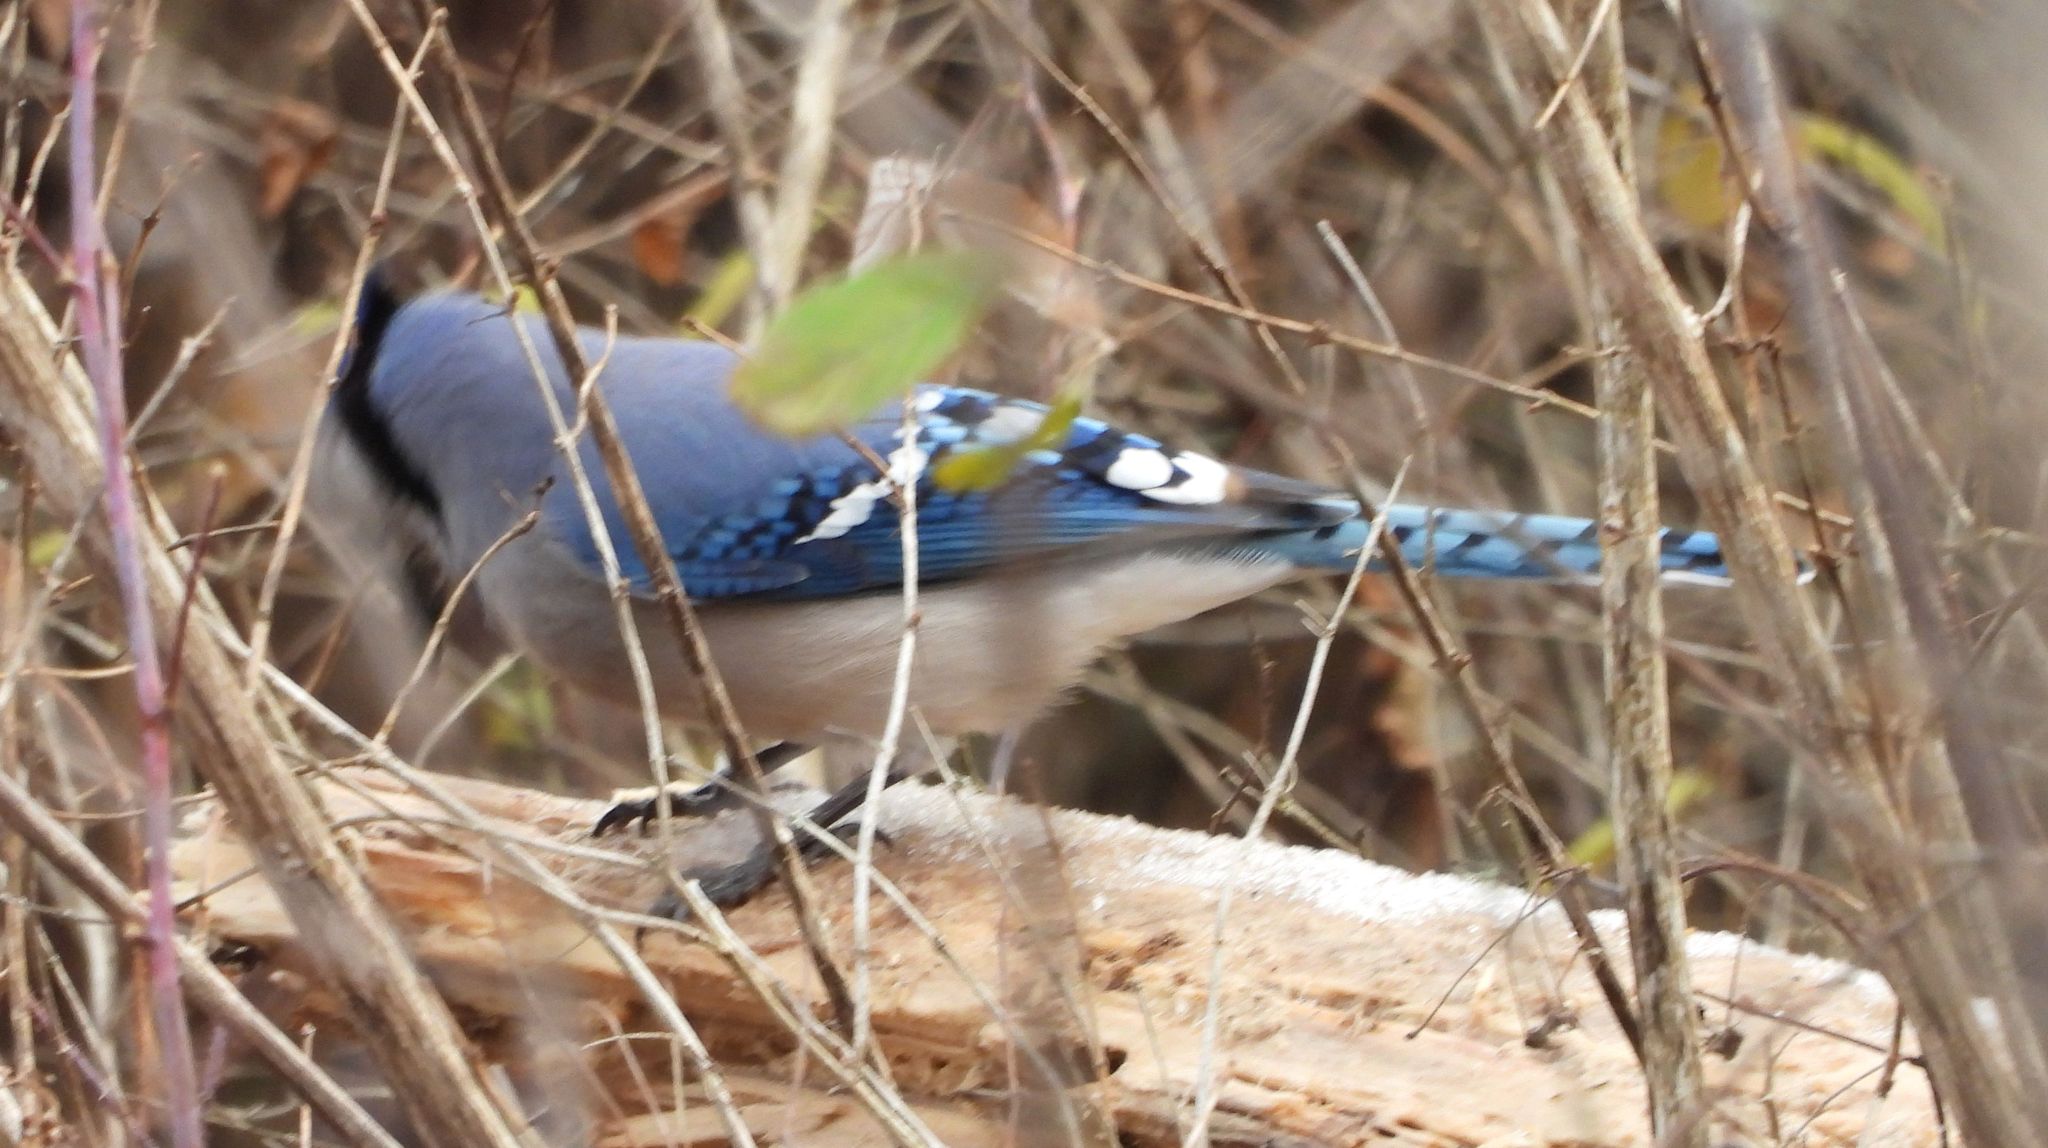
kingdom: Animalia
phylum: Chordata
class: Aves
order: Passeriformes
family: Corvidae
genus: Cyanocitta
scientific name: Cyanocitta cristata
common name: Blue jay
